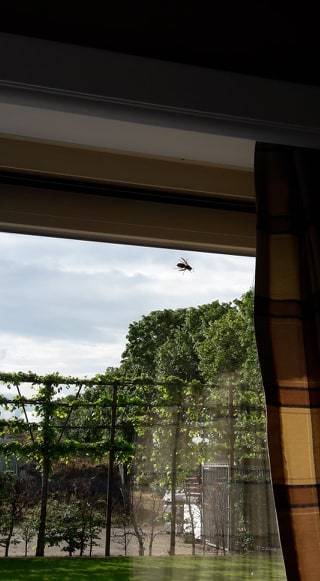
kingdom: Animalia
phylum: Arthropoda
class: Insecta
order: Hymenoptera
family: Vespidae
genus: Vespa
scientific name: Vespa crabro
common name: Hornet
